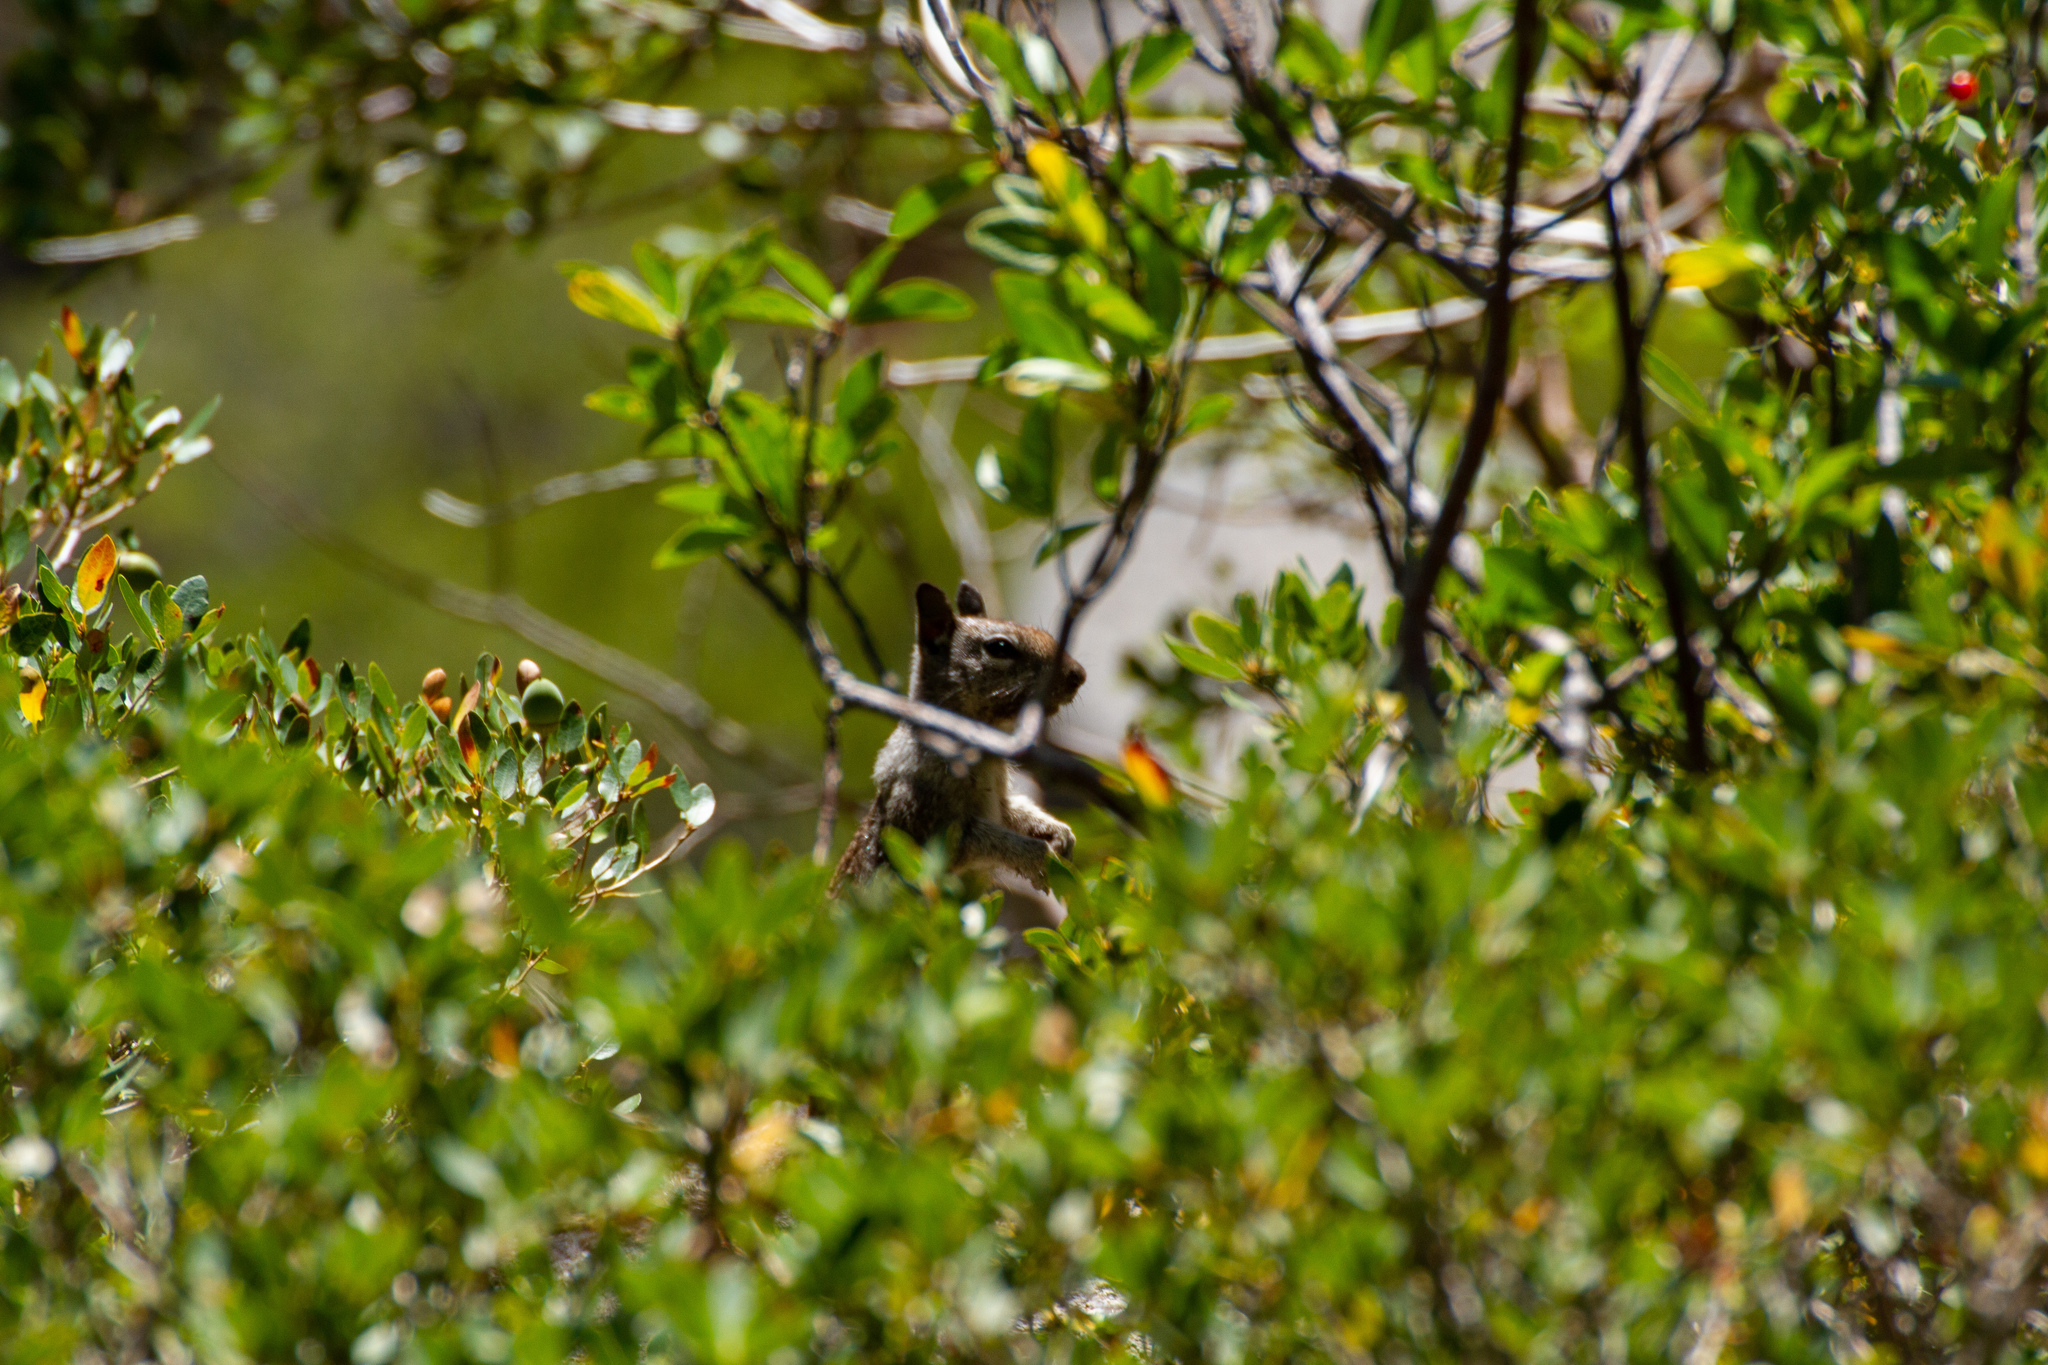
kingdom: Animalia
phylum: Chordata
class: Mammalia
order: Rodentia
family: Sciuridae
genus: Otospermophilus
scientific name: Otospermophilus beecheyi
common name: California ground squirrel
